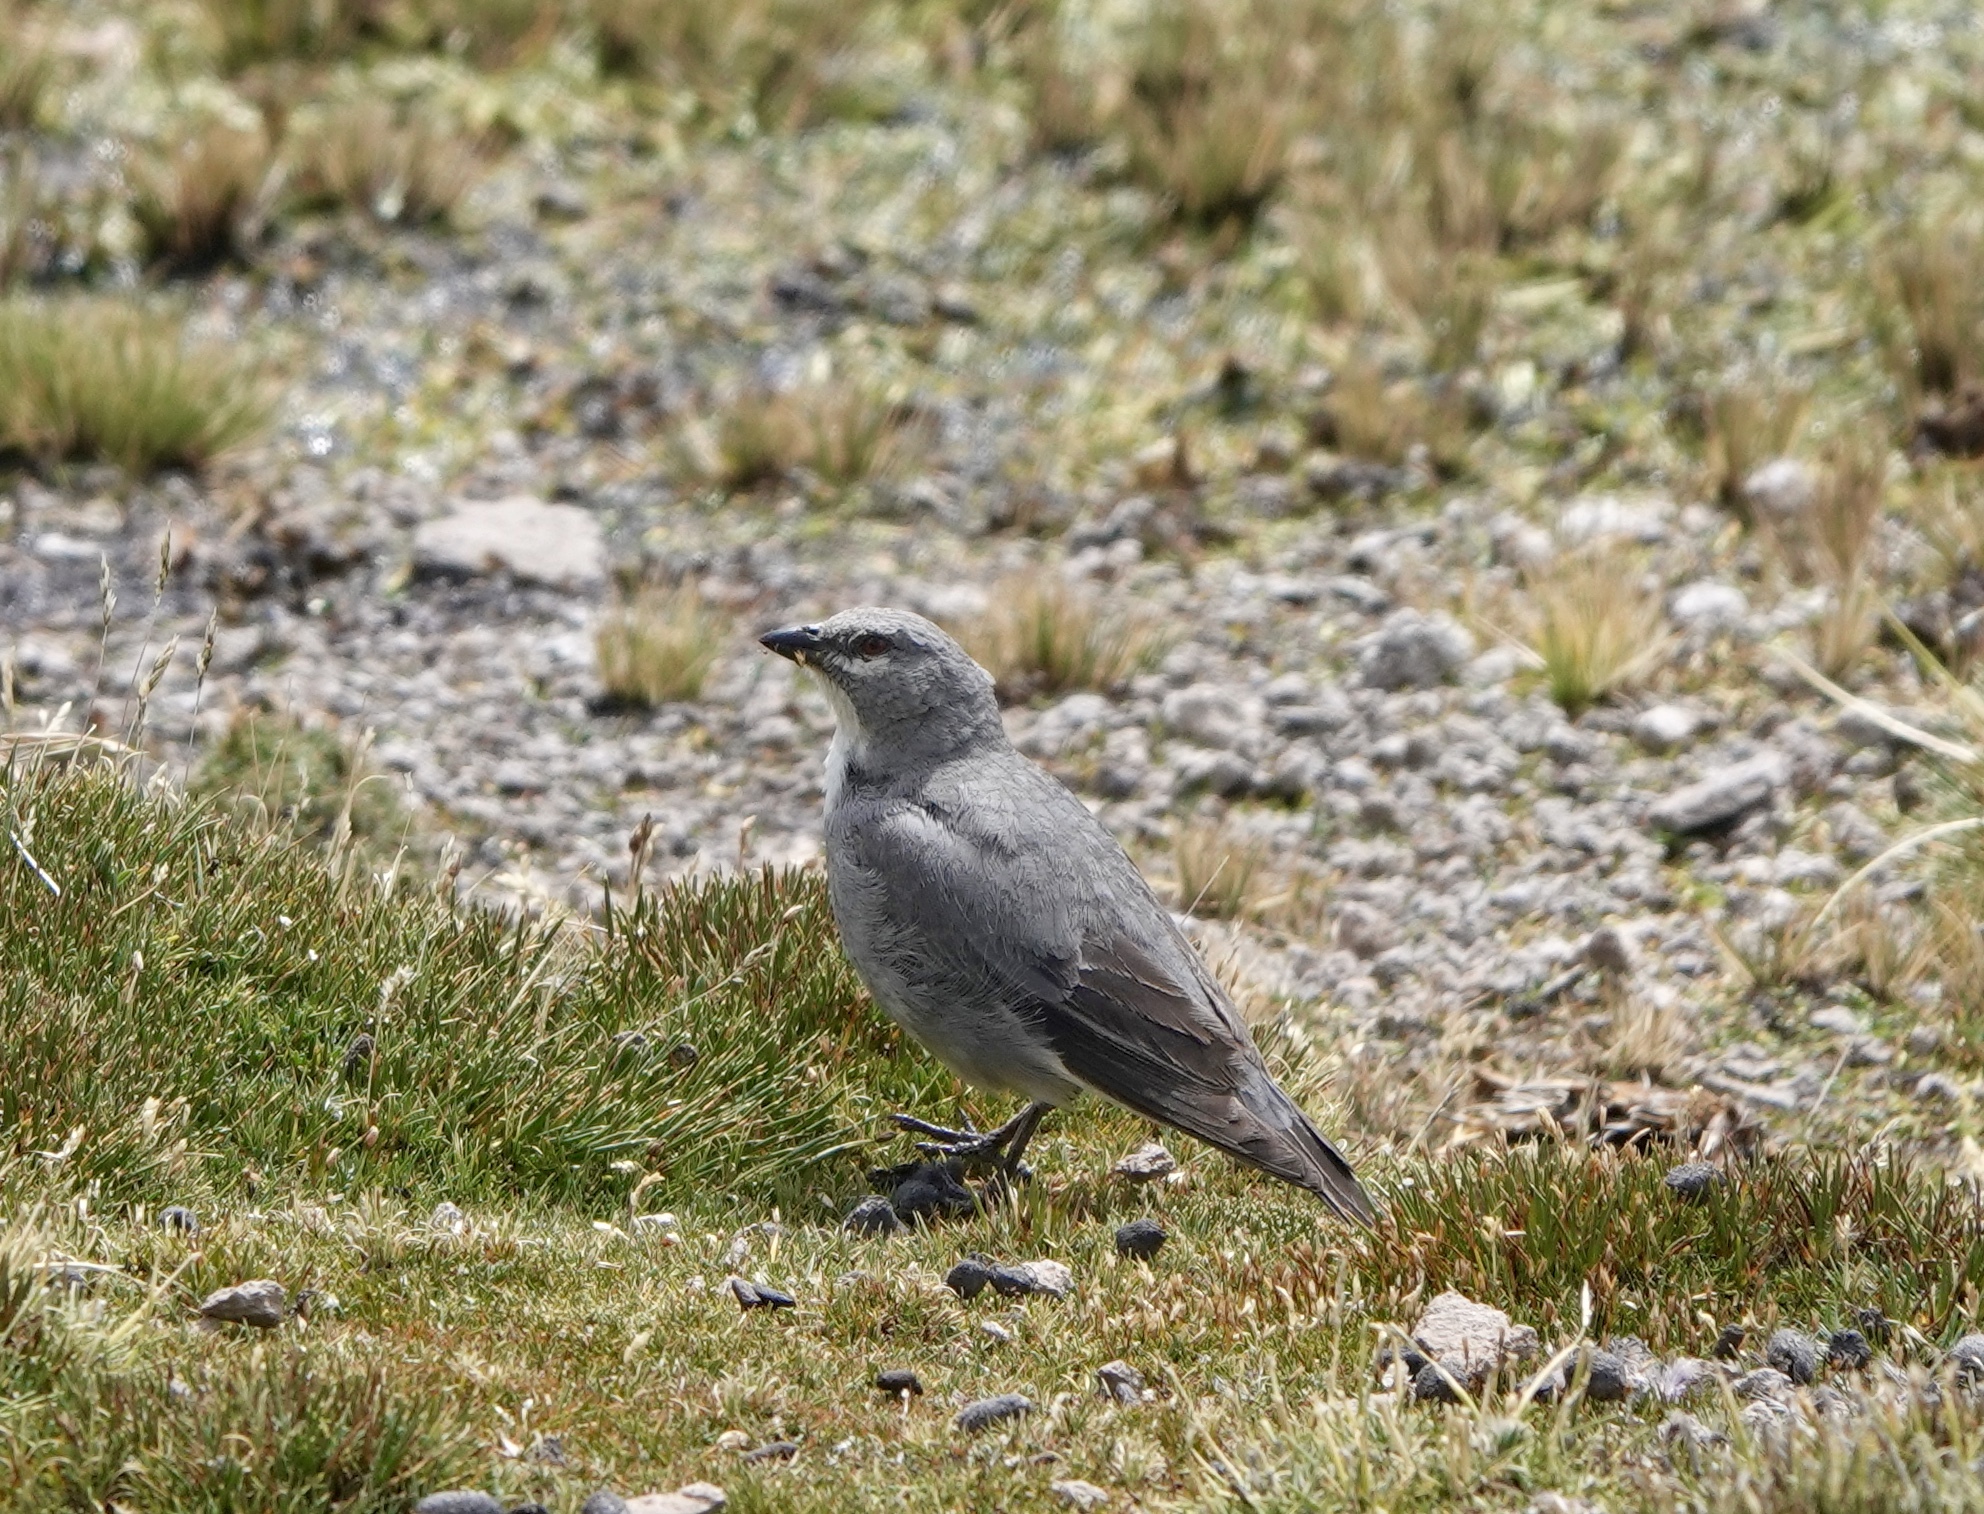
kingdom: Animalia
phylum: Chordata
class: Aves
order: Passeriformes
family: Thraupidae
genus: Idiopsar
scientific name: Idiopsar speculifer
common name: Glacier finch
